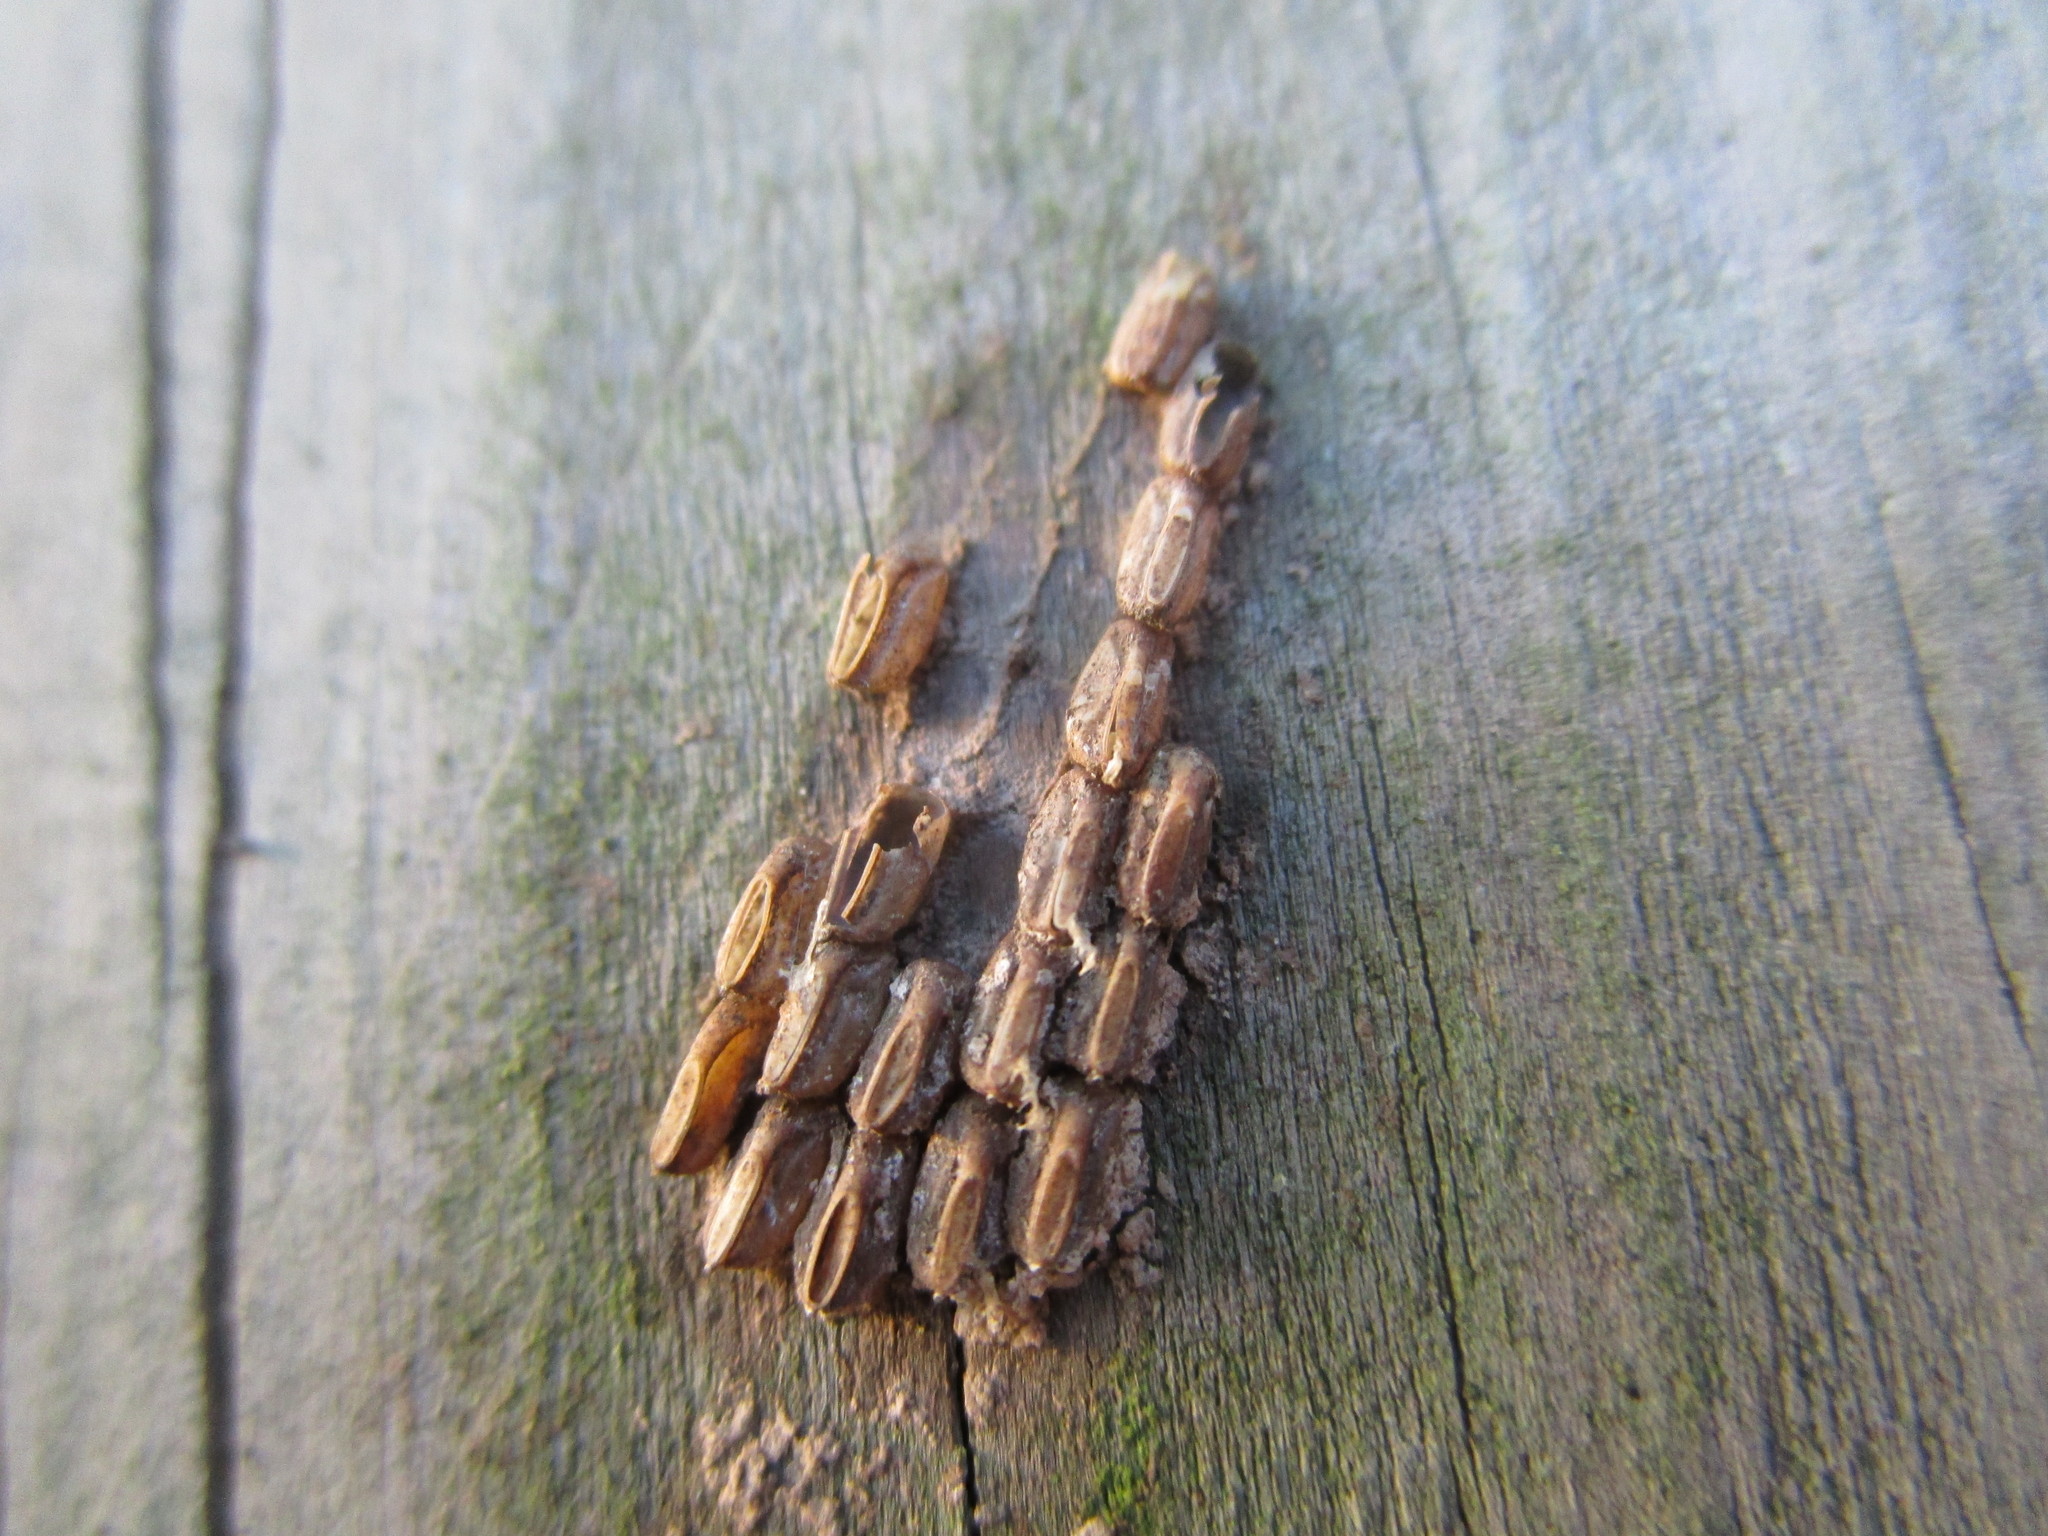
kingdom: Animalia
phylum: Arthropoda
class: Insecta
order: Hemiptera
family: Fulgoridae
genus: Lycorma
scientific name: Lycorma delicatula
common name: Spotted lanternfly
